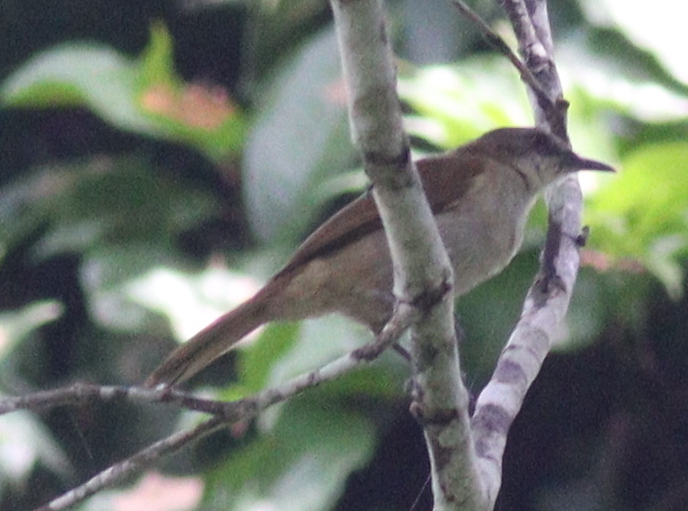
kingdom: Animalia
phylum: Chordata
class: Aves
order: Passeriformes
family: Pycnonotidae
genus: Stelgidillas
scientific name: Stelgidillas gracilirostris
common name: Slender-billed greenbul
